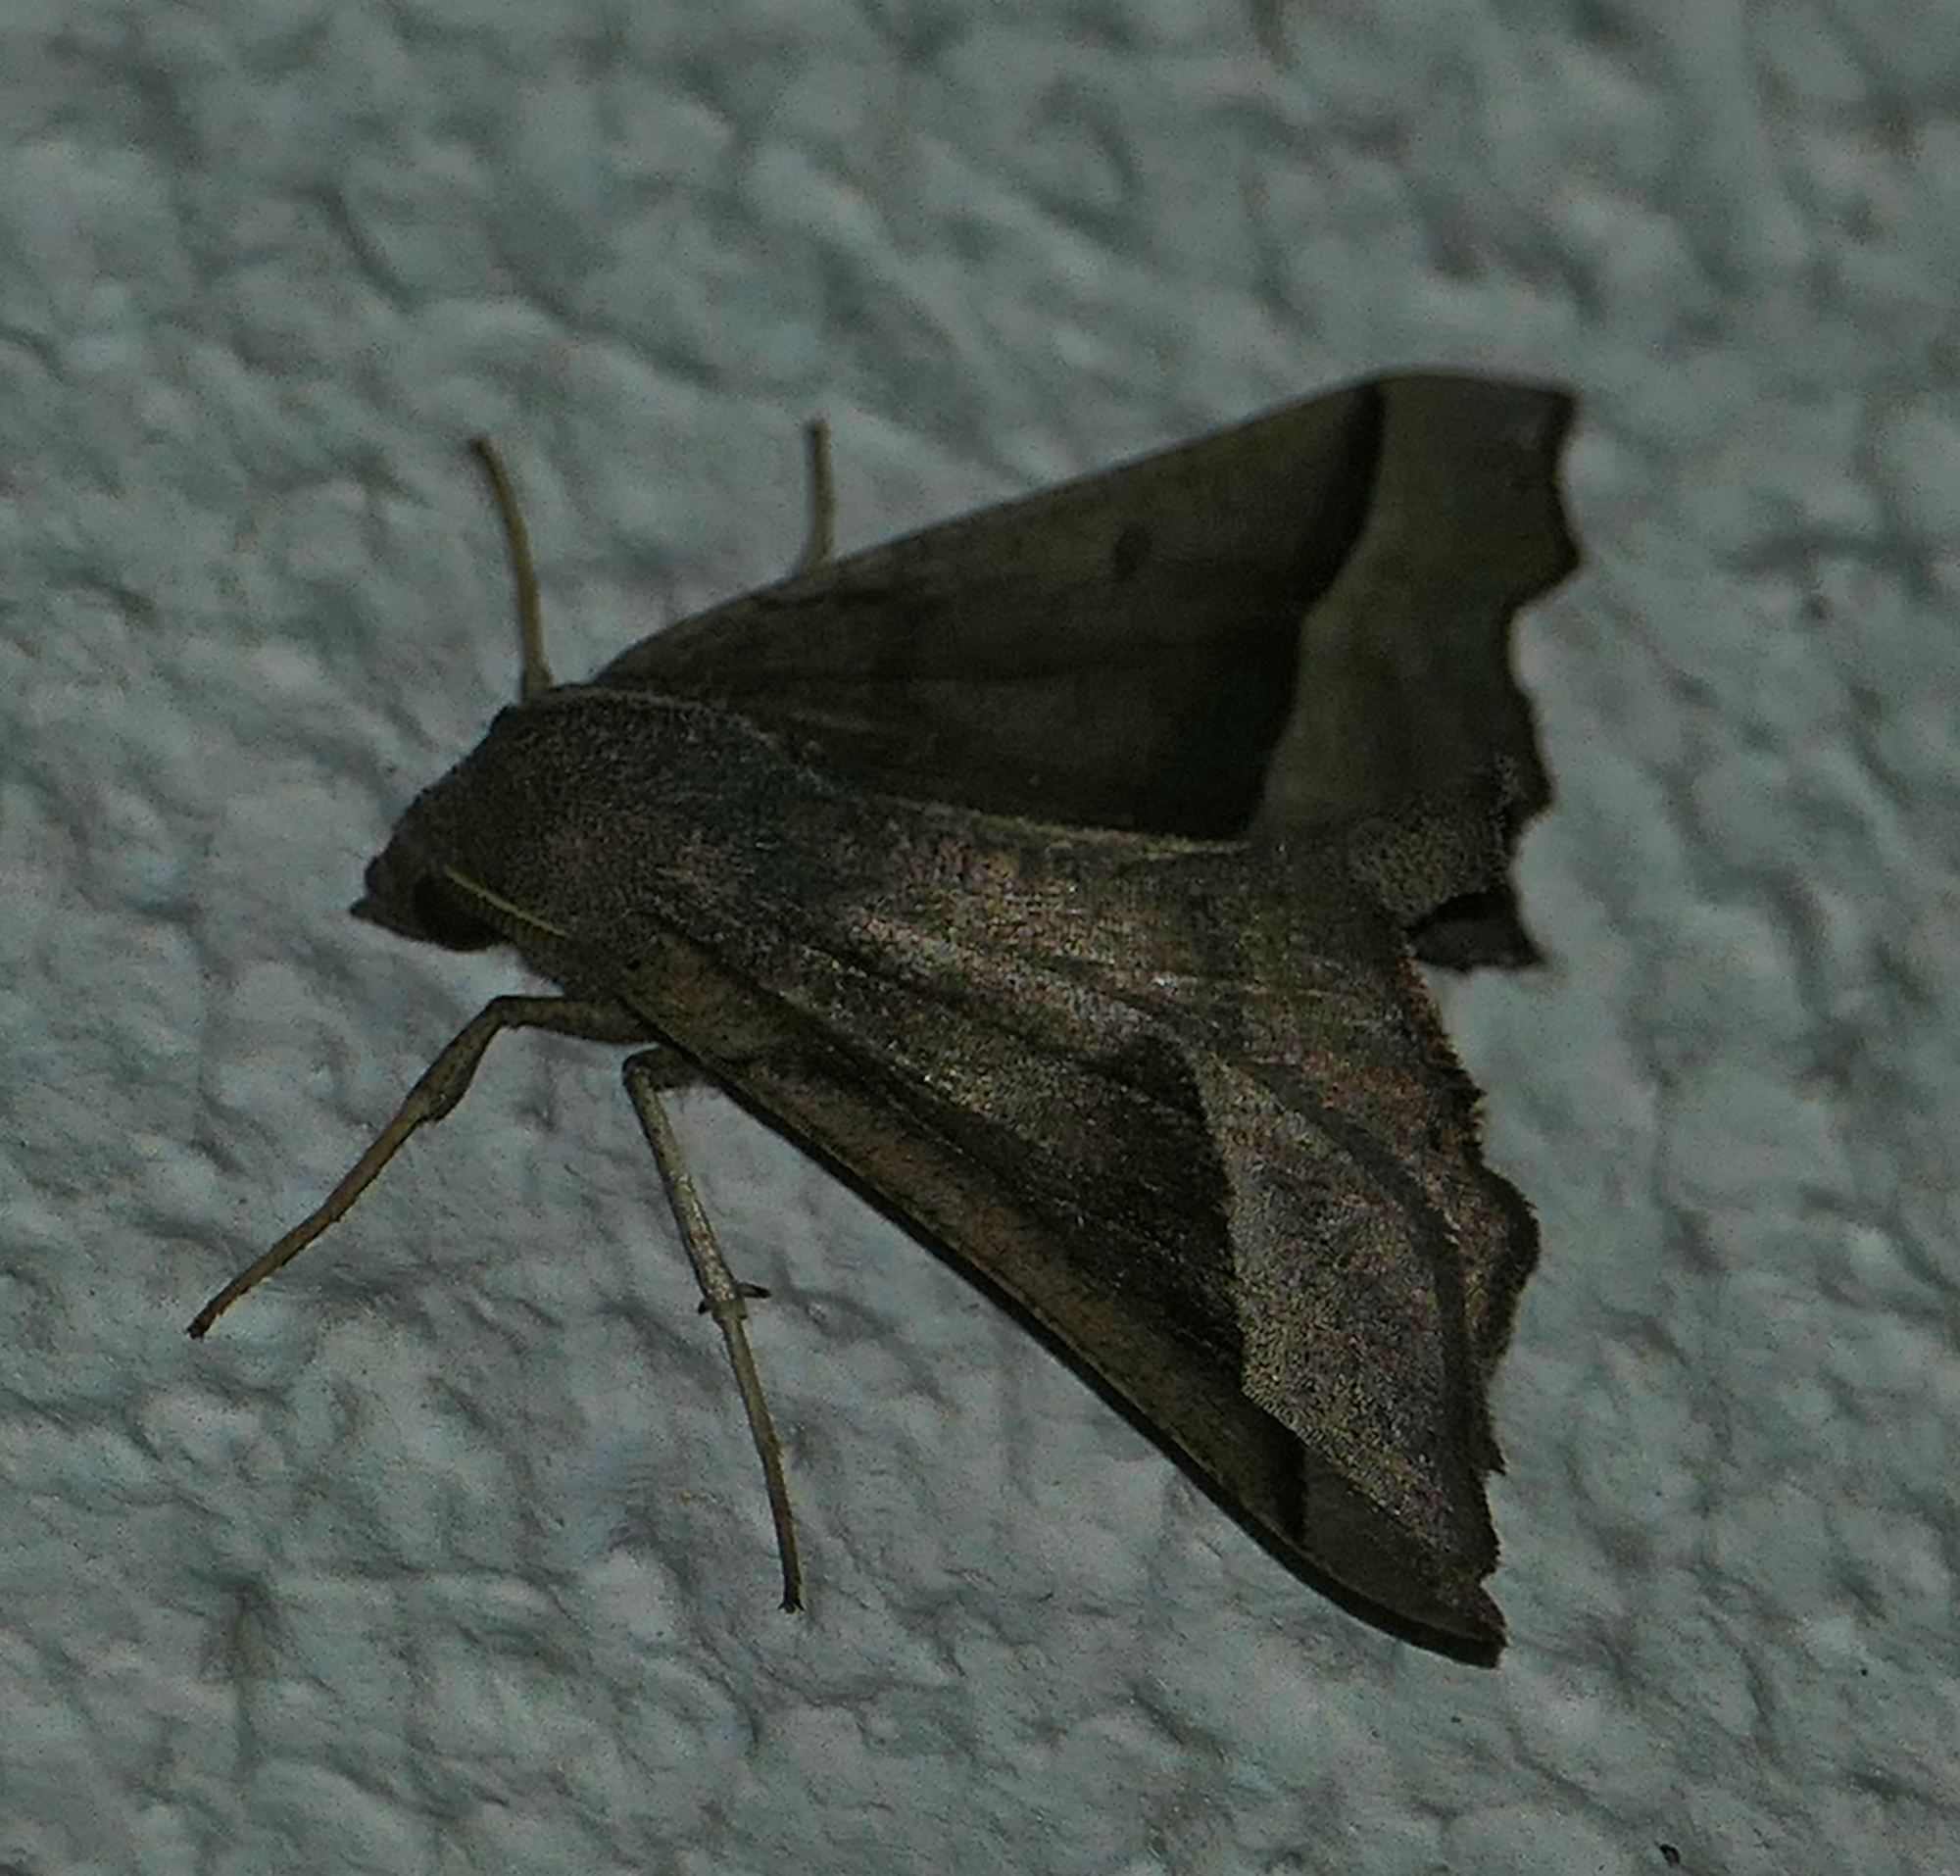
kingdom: Animalia
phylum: Arthropoda
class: Insecta
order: Lepidoptera
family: Geometridae
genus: Pero
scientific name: Pero zalissaria
